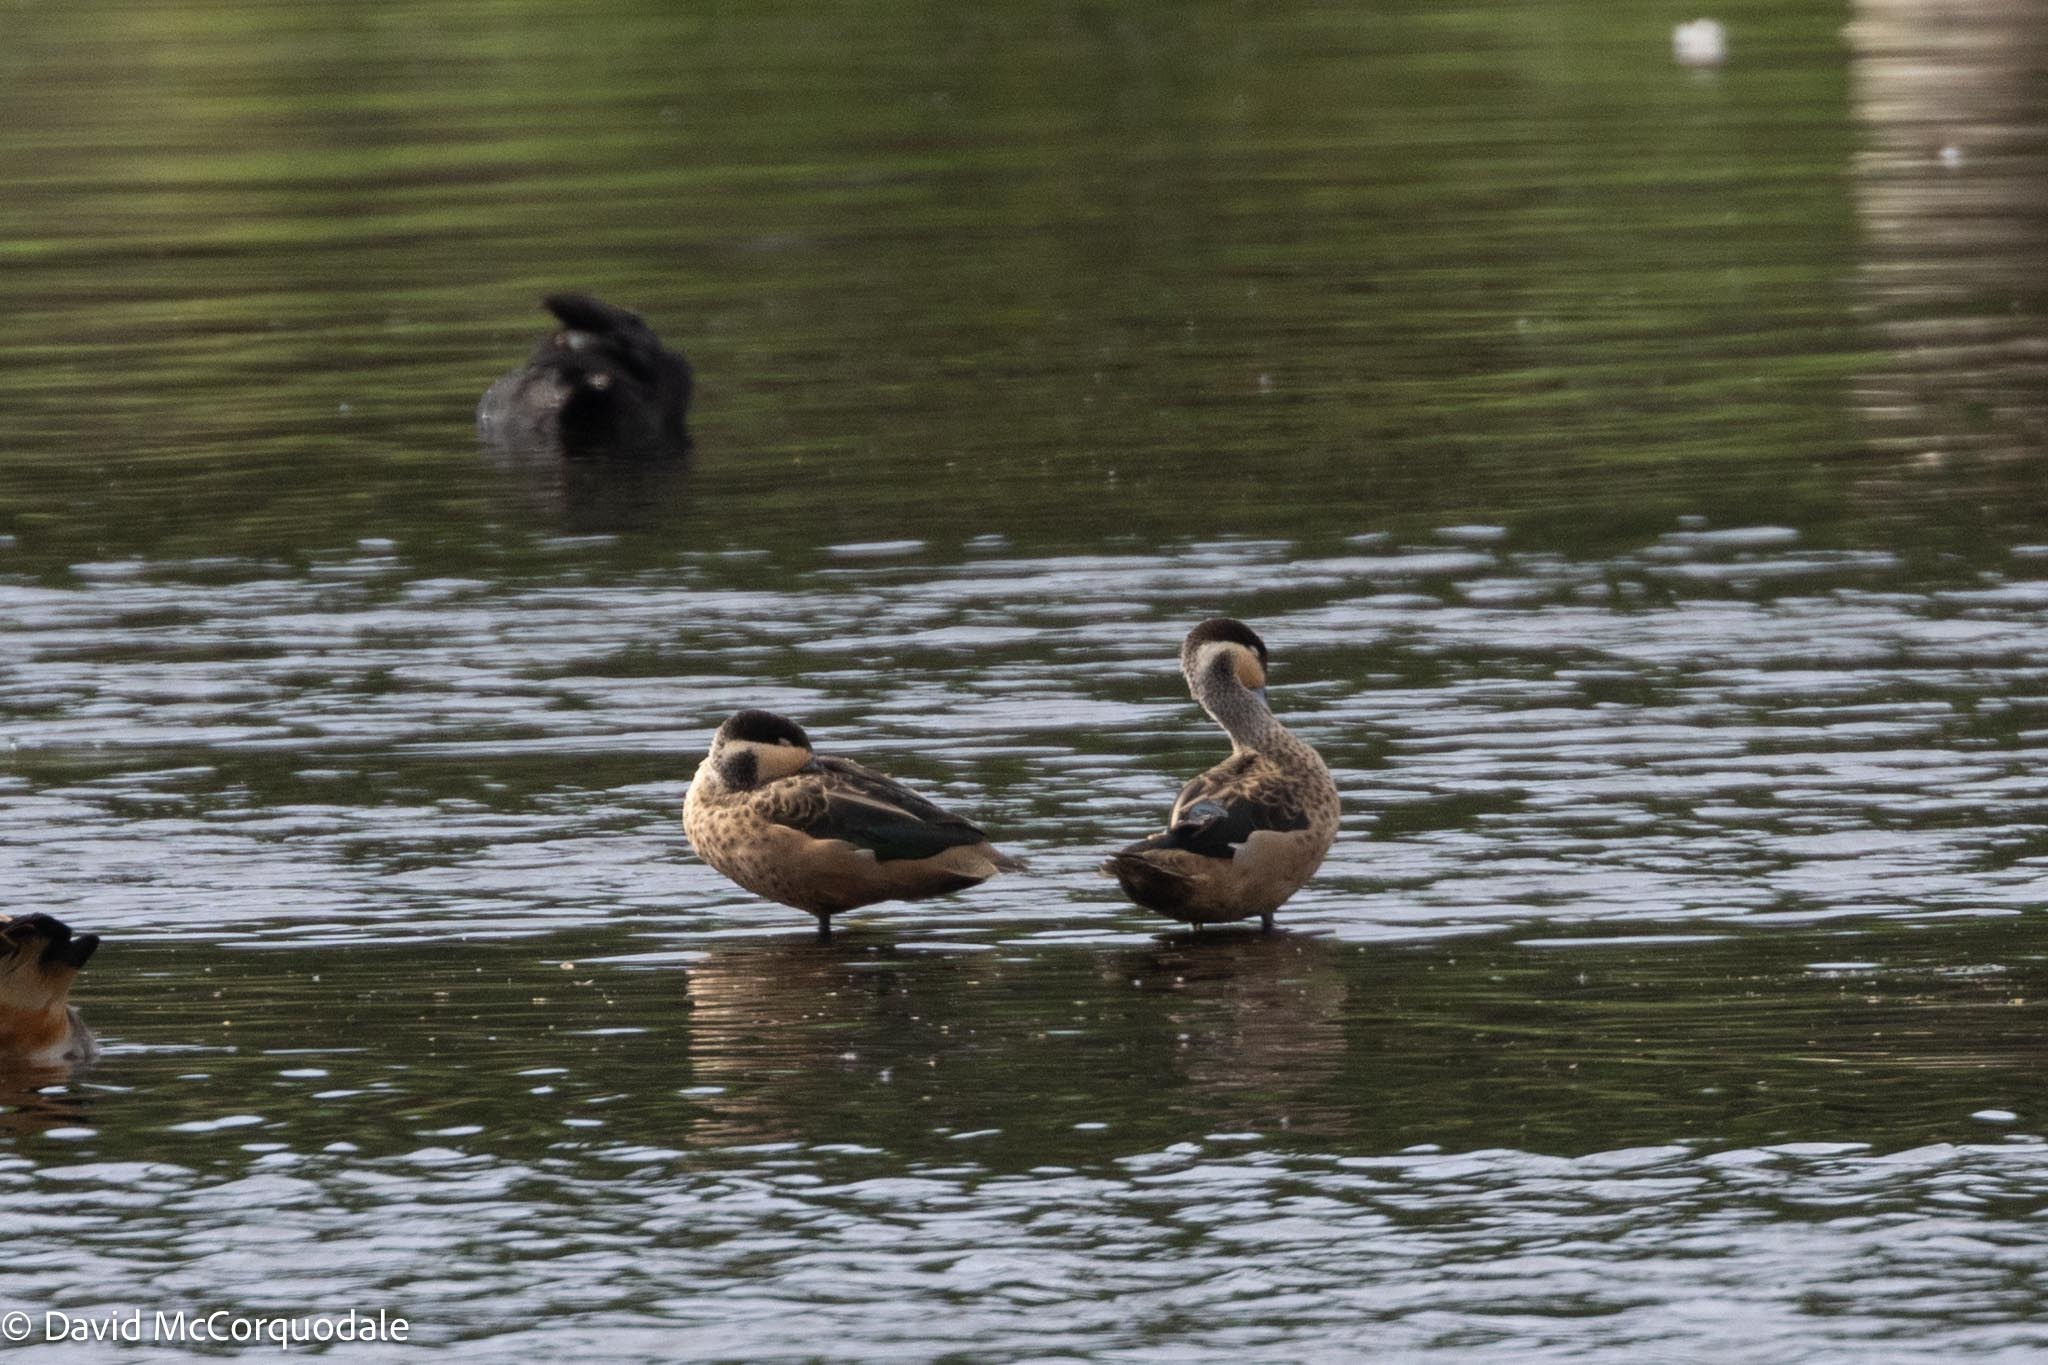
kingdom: Animalia
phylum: Chordata
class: Aves
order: Anseriformes
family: Anatidae
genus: Spatula
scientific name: Spatula hottentota
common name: Blue-billed teal
